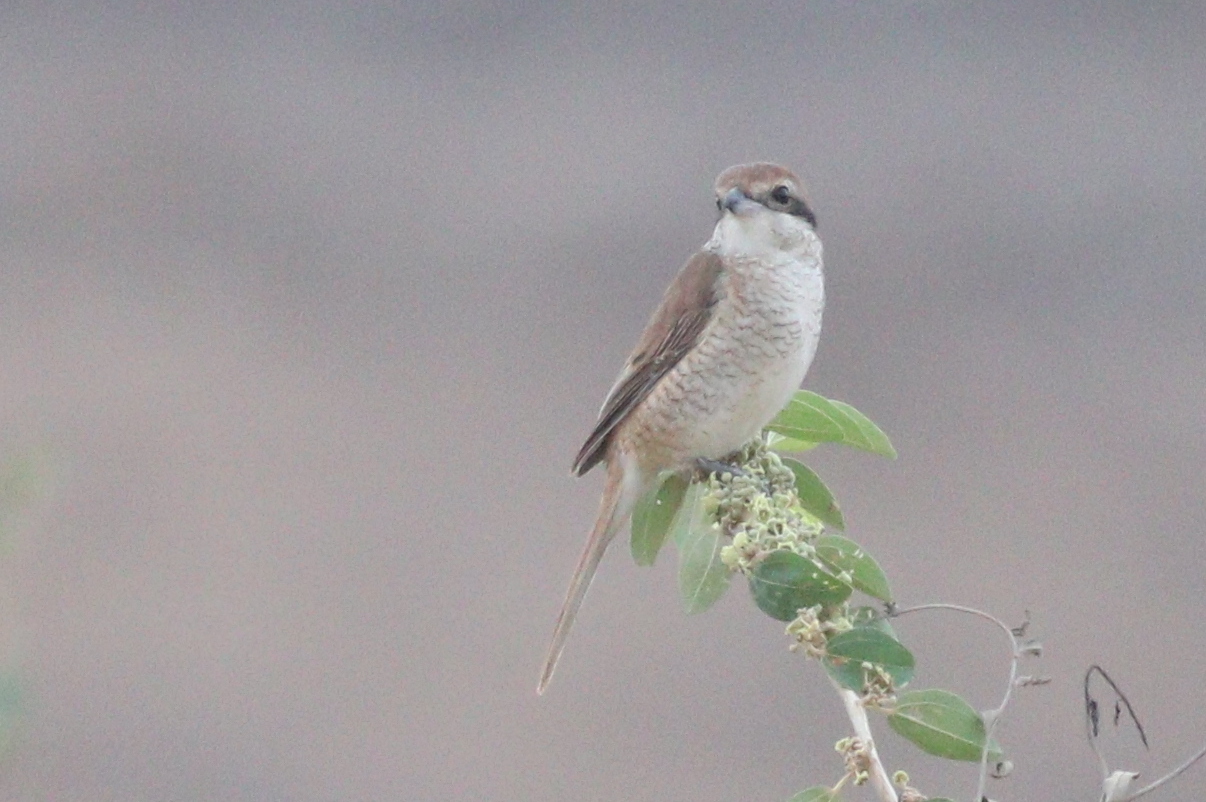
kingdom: Animalia
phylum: Chordata
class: Aves
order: Passeriformes
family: Laniidae
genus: Lanius
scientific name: Lanius cristatus
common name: Brown shrike
